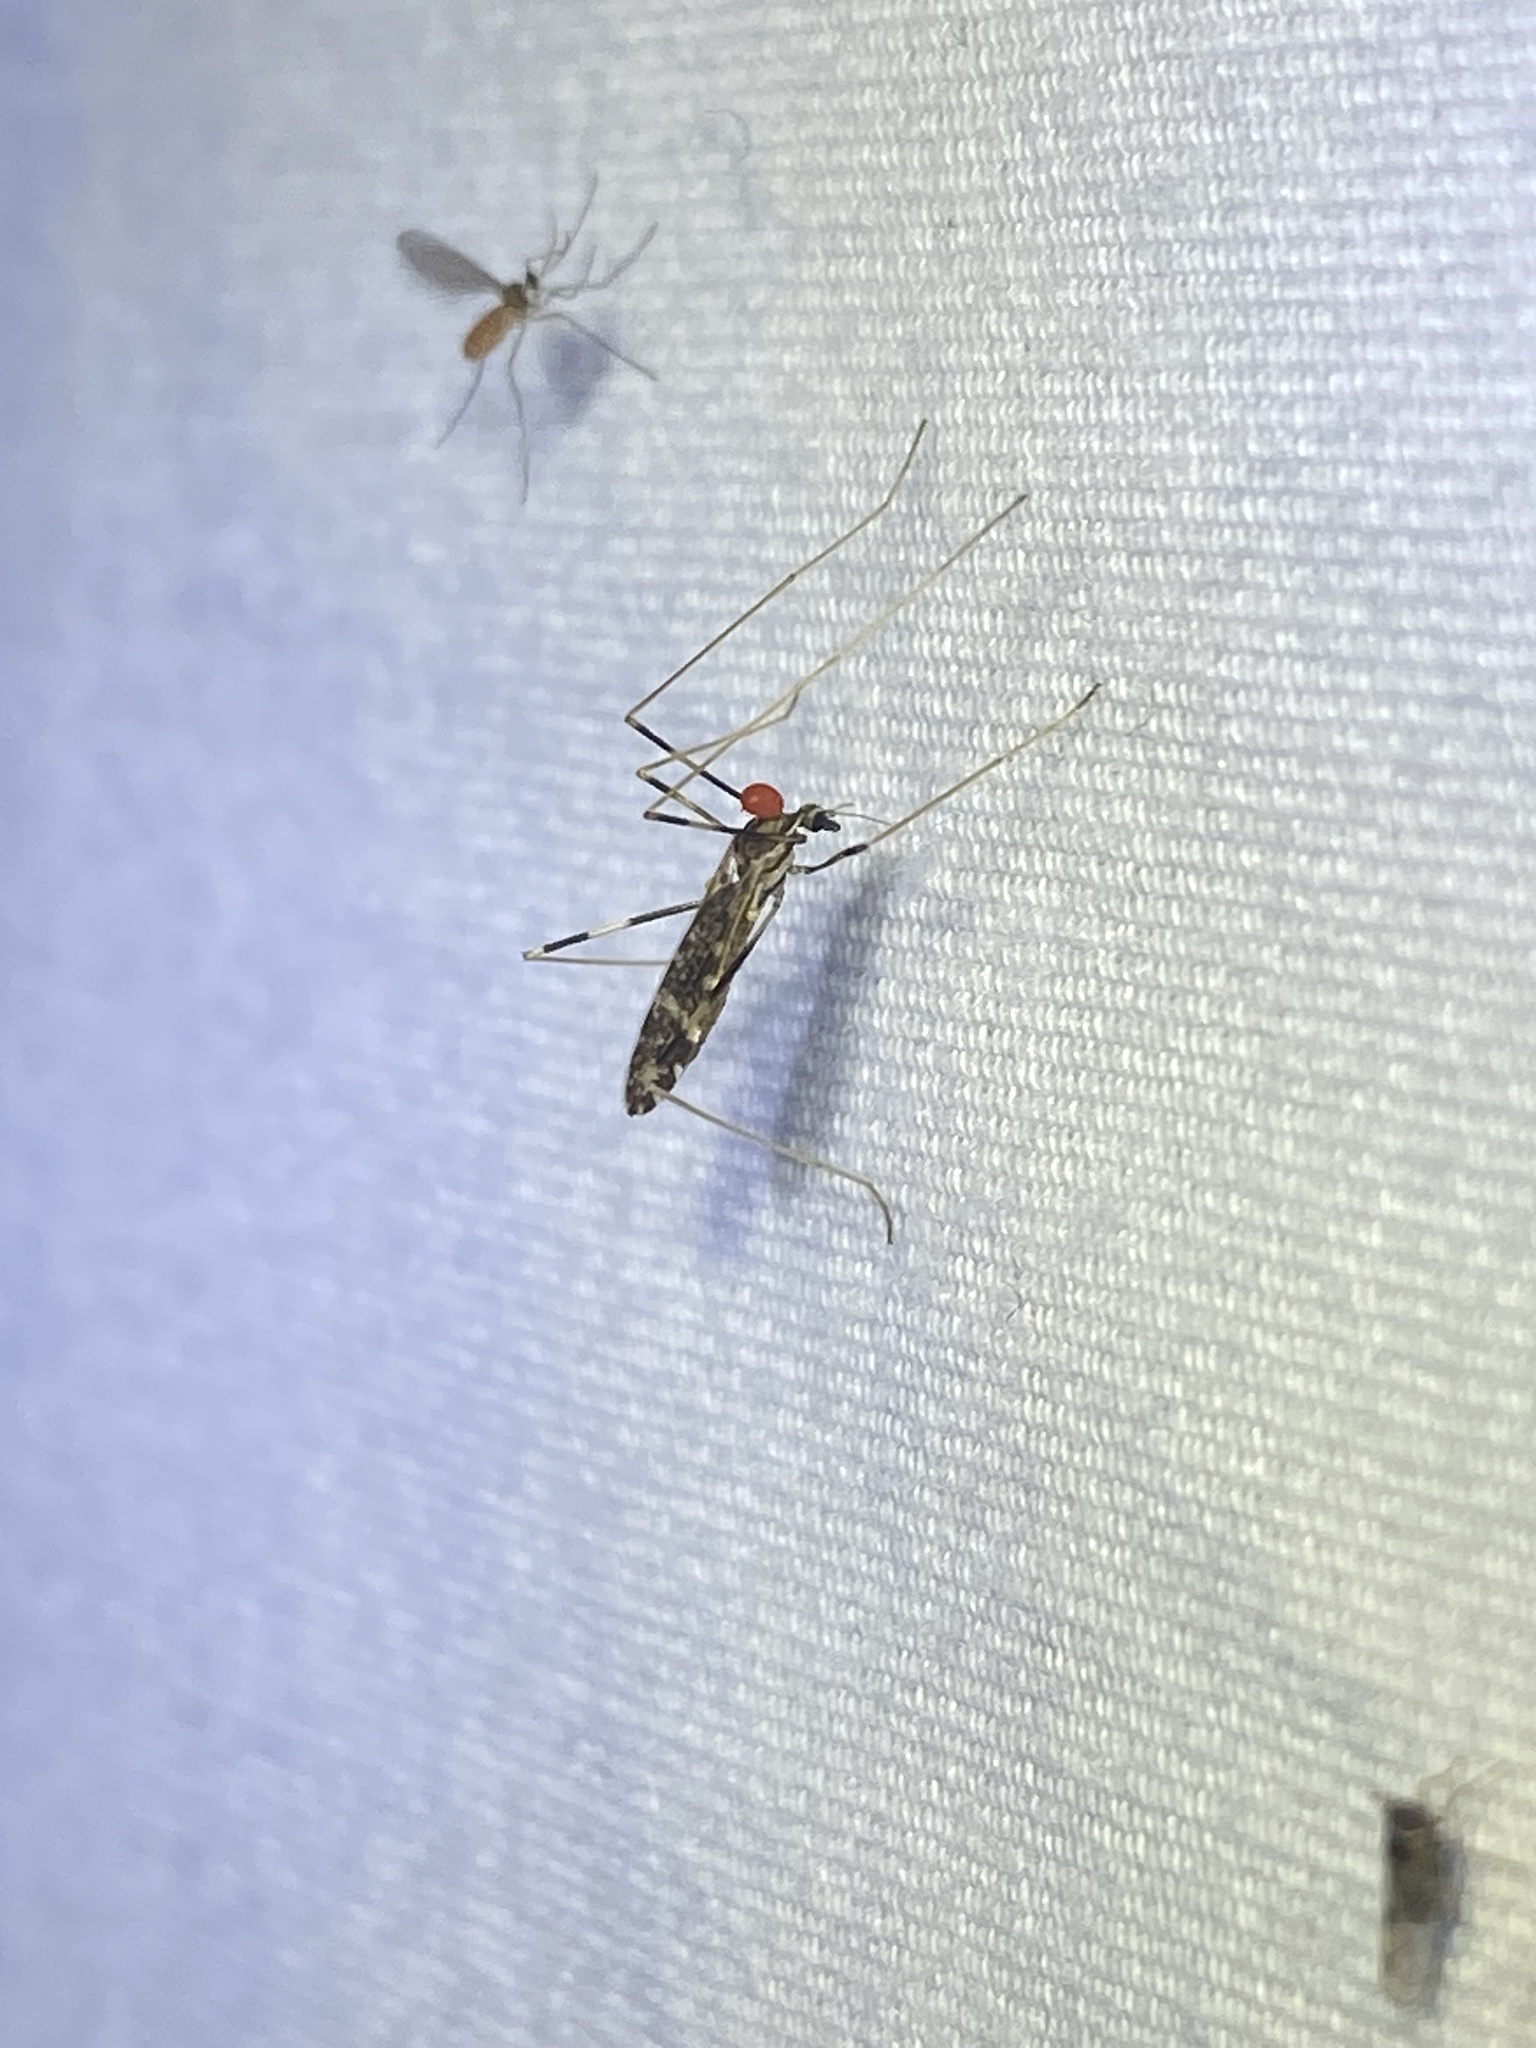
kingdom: Animalia
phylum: Arthropoda
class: Insecta
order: Diptera
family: Limoniidae
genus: Erioptera
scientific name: Erioptera caliptera
